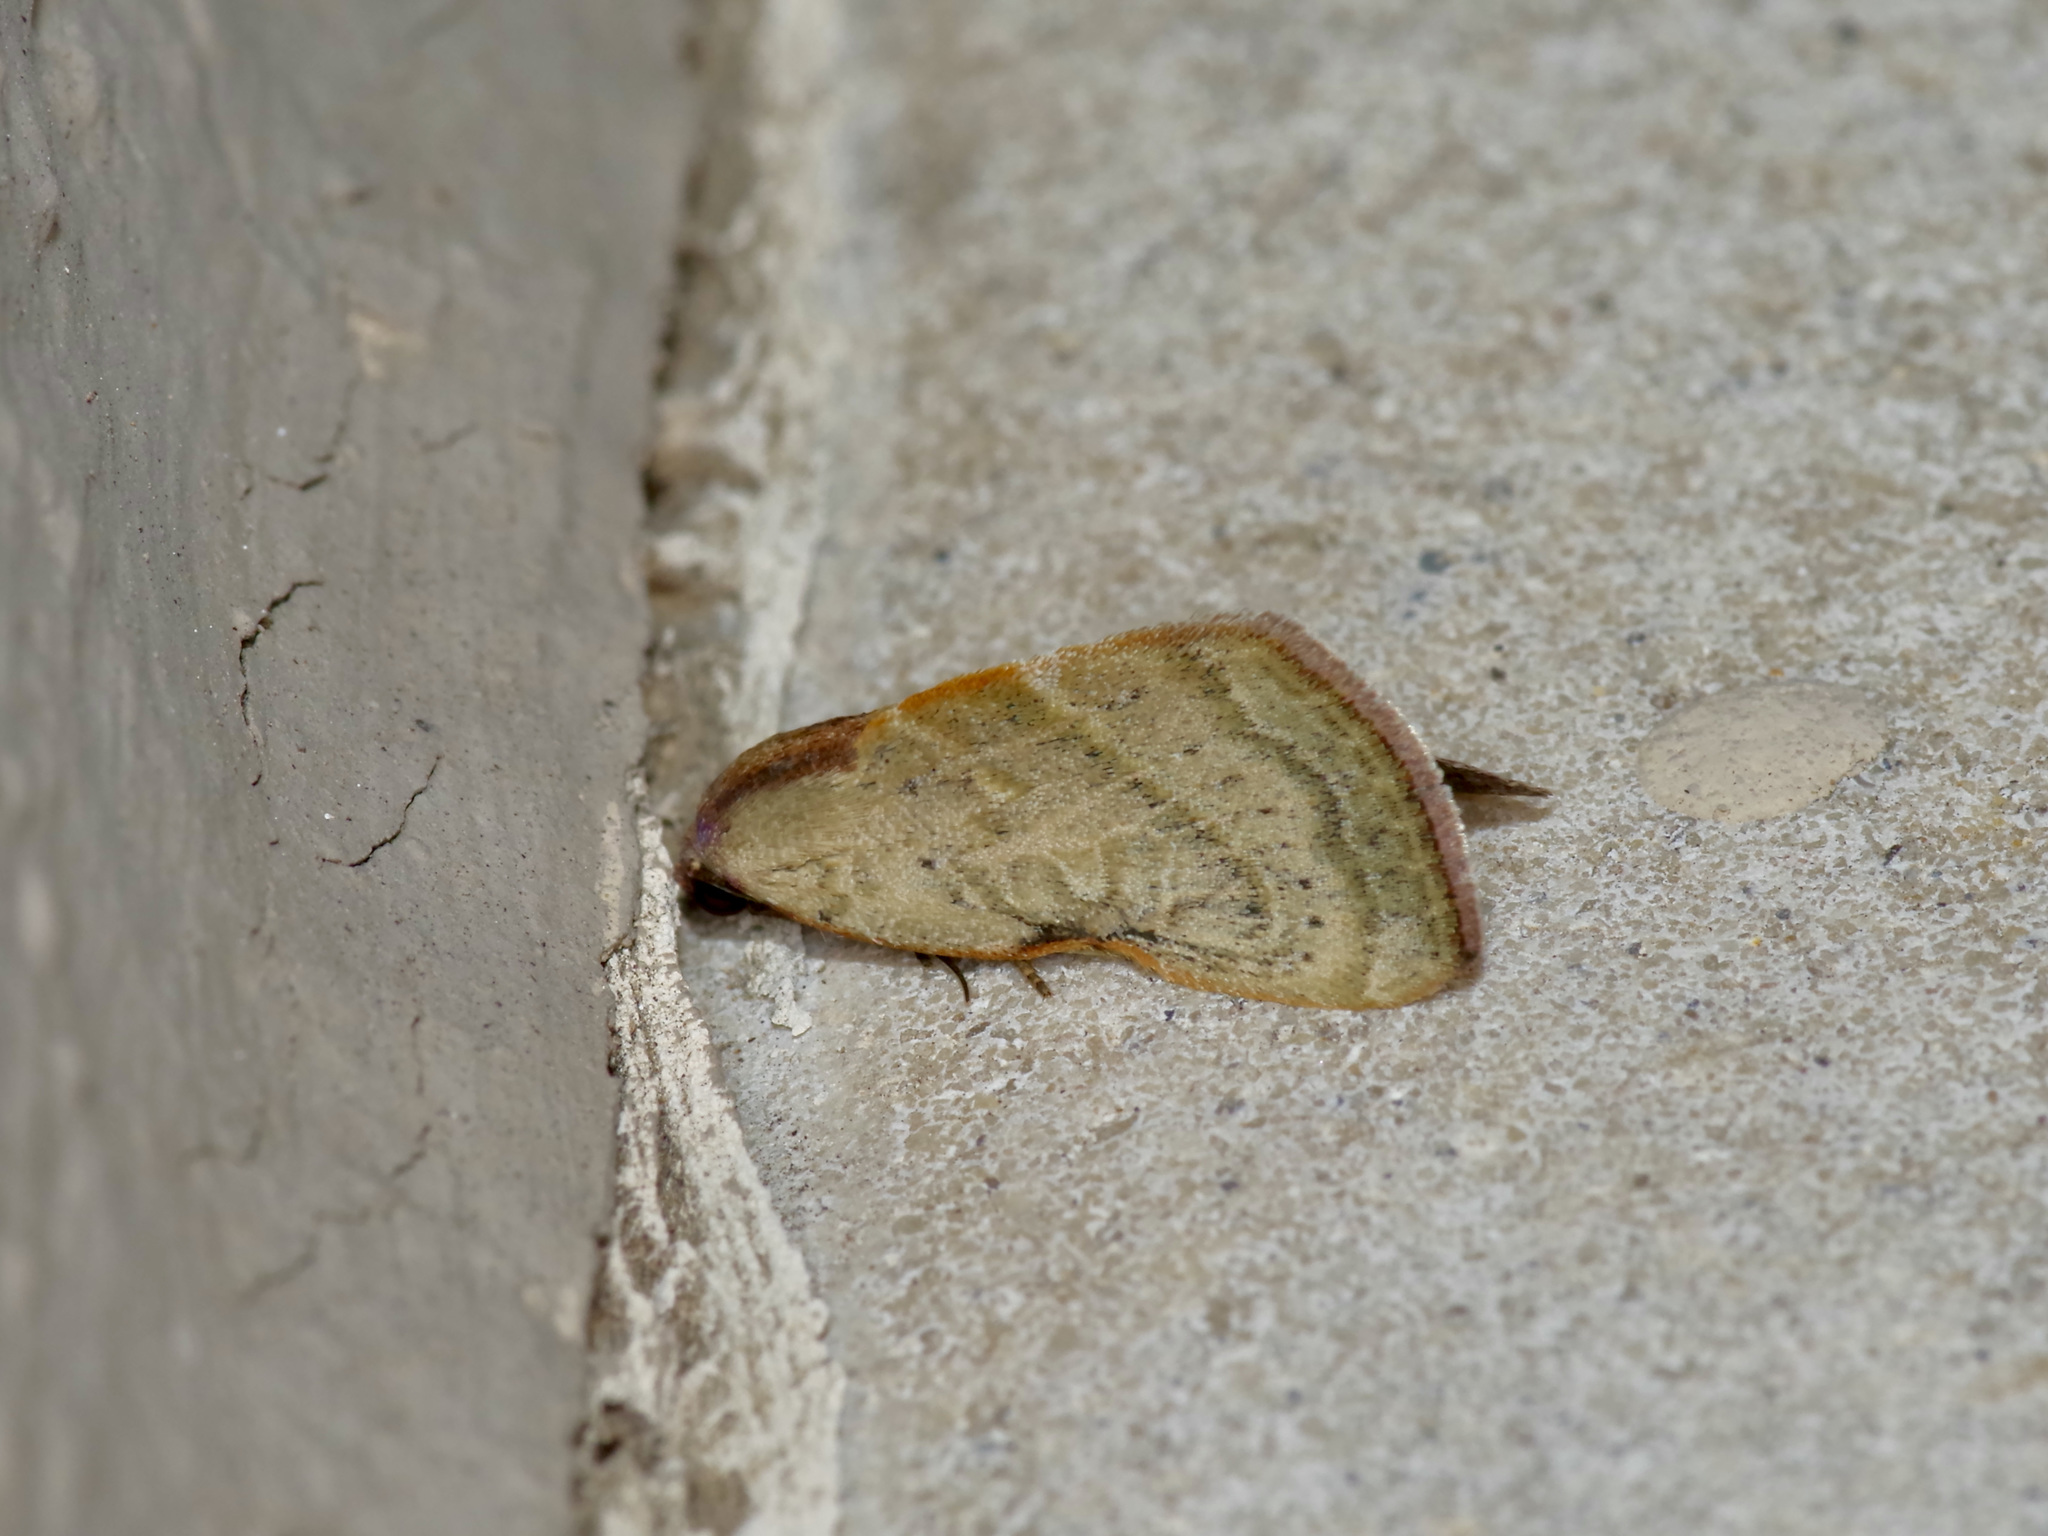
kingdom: Animalia
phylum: Arthropoda
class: Insecta
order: Lepidoptera
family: Noctuidae
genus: Galgula
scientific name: Galgula partita
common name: Wedgeling
